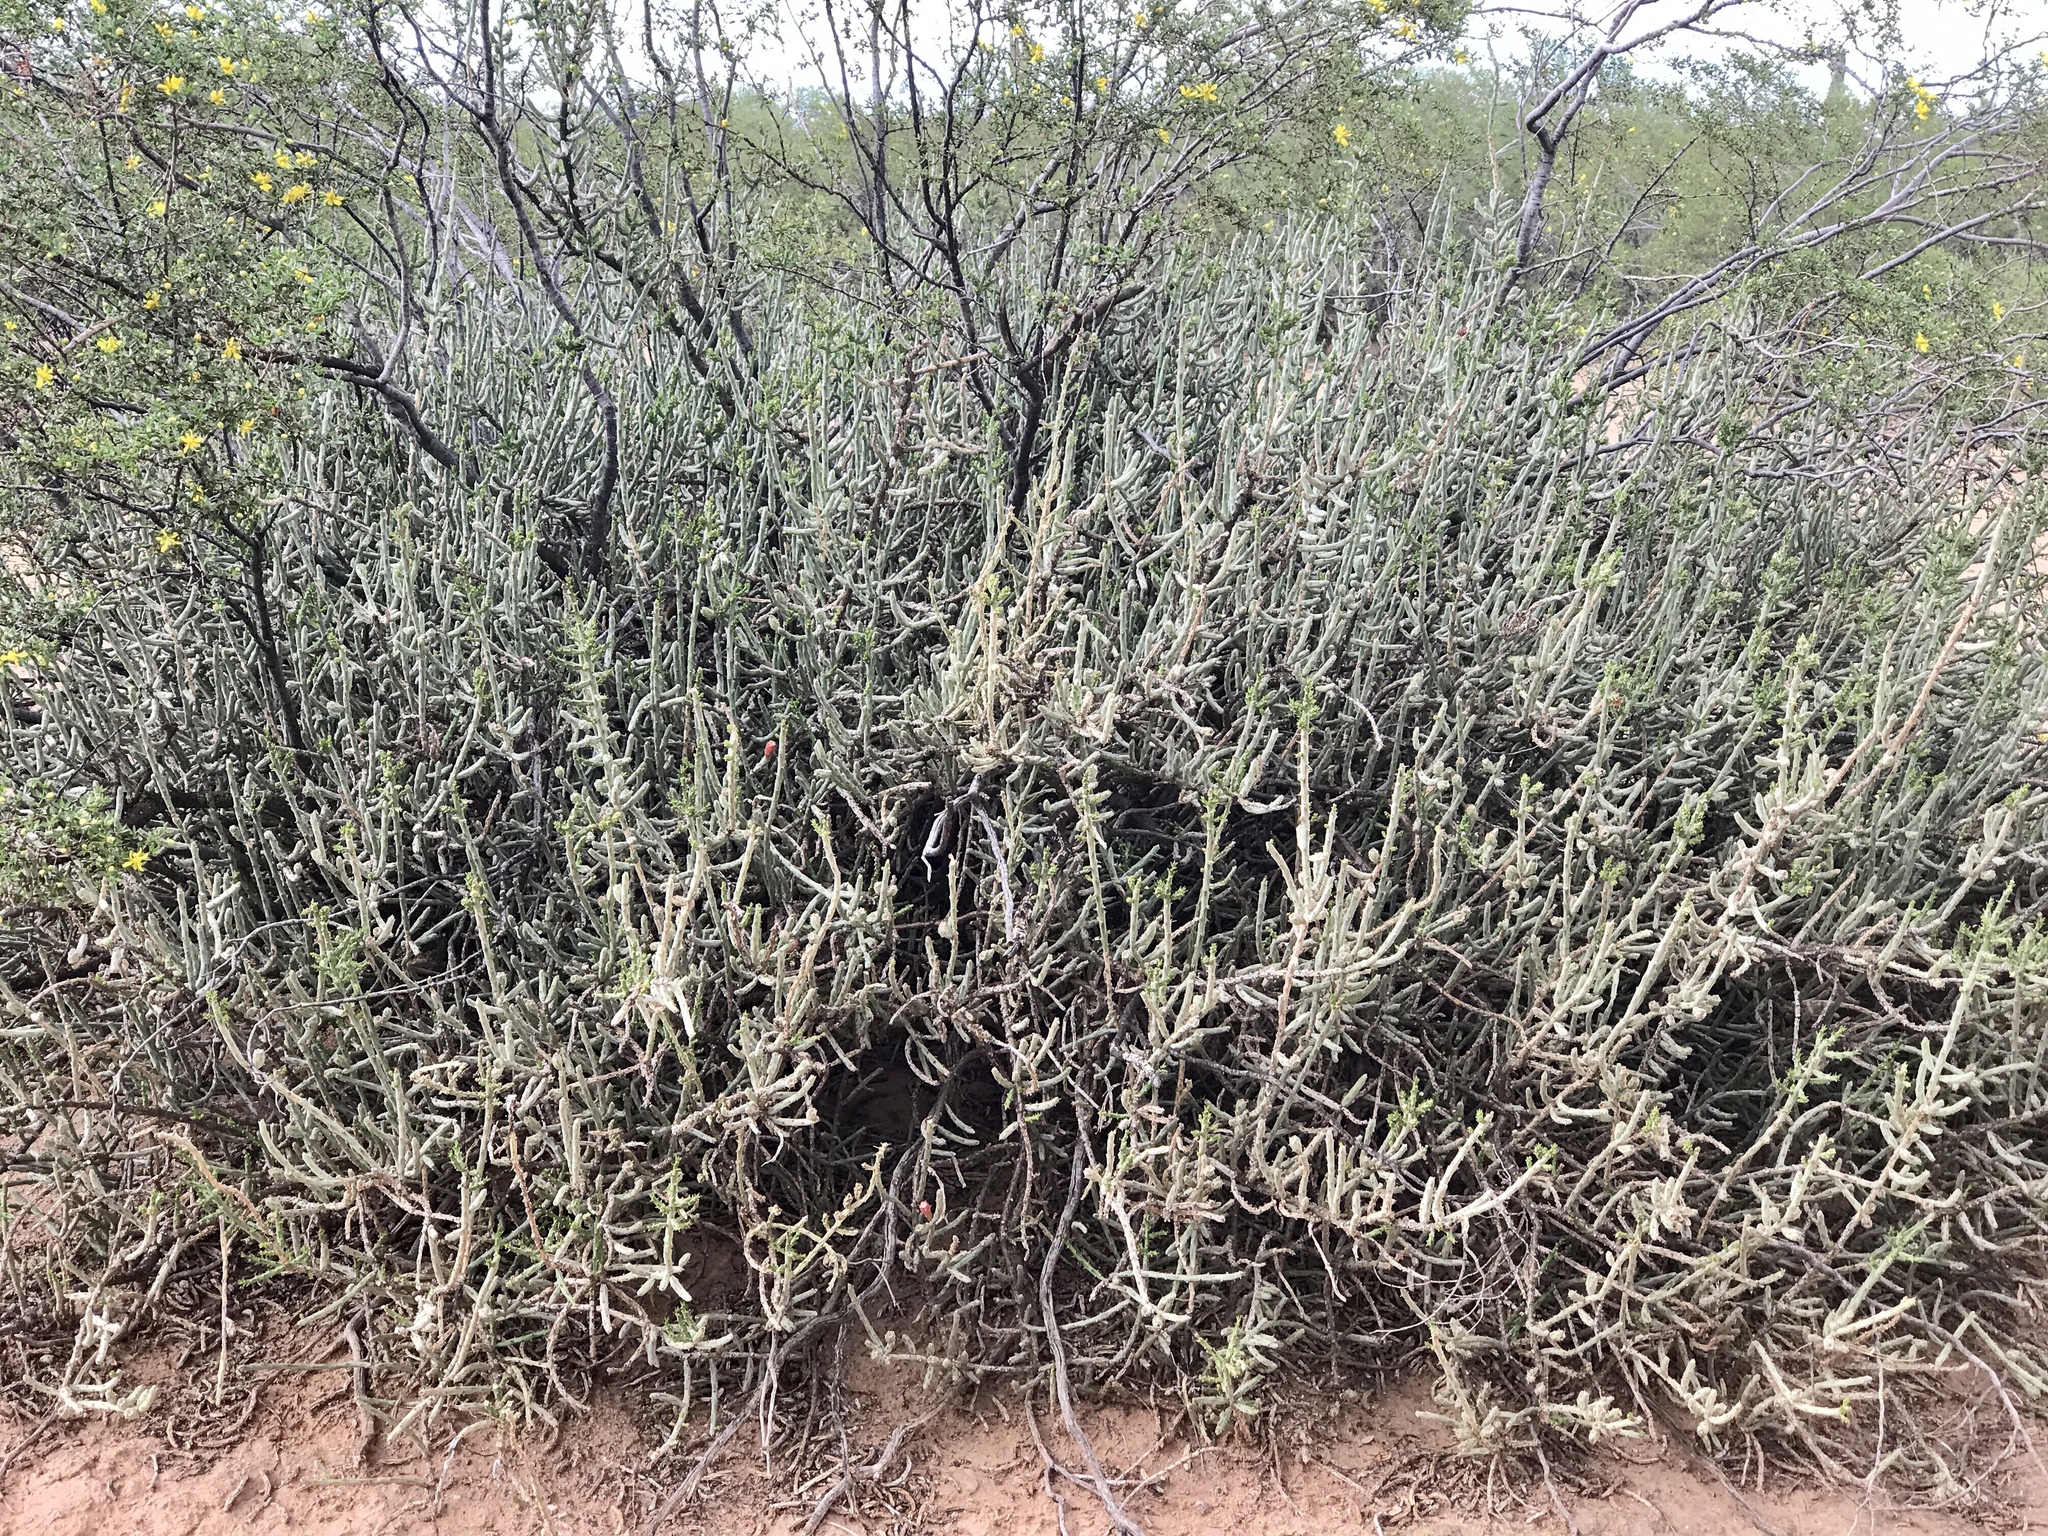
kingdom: Plantae
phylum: Tracheophyta
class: Magnoliopsida
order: Caryophyllales
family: Cactaceae
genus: Cylindropuntia
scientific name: Cylindropuntia leptocaulis
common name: Christmas cactus
